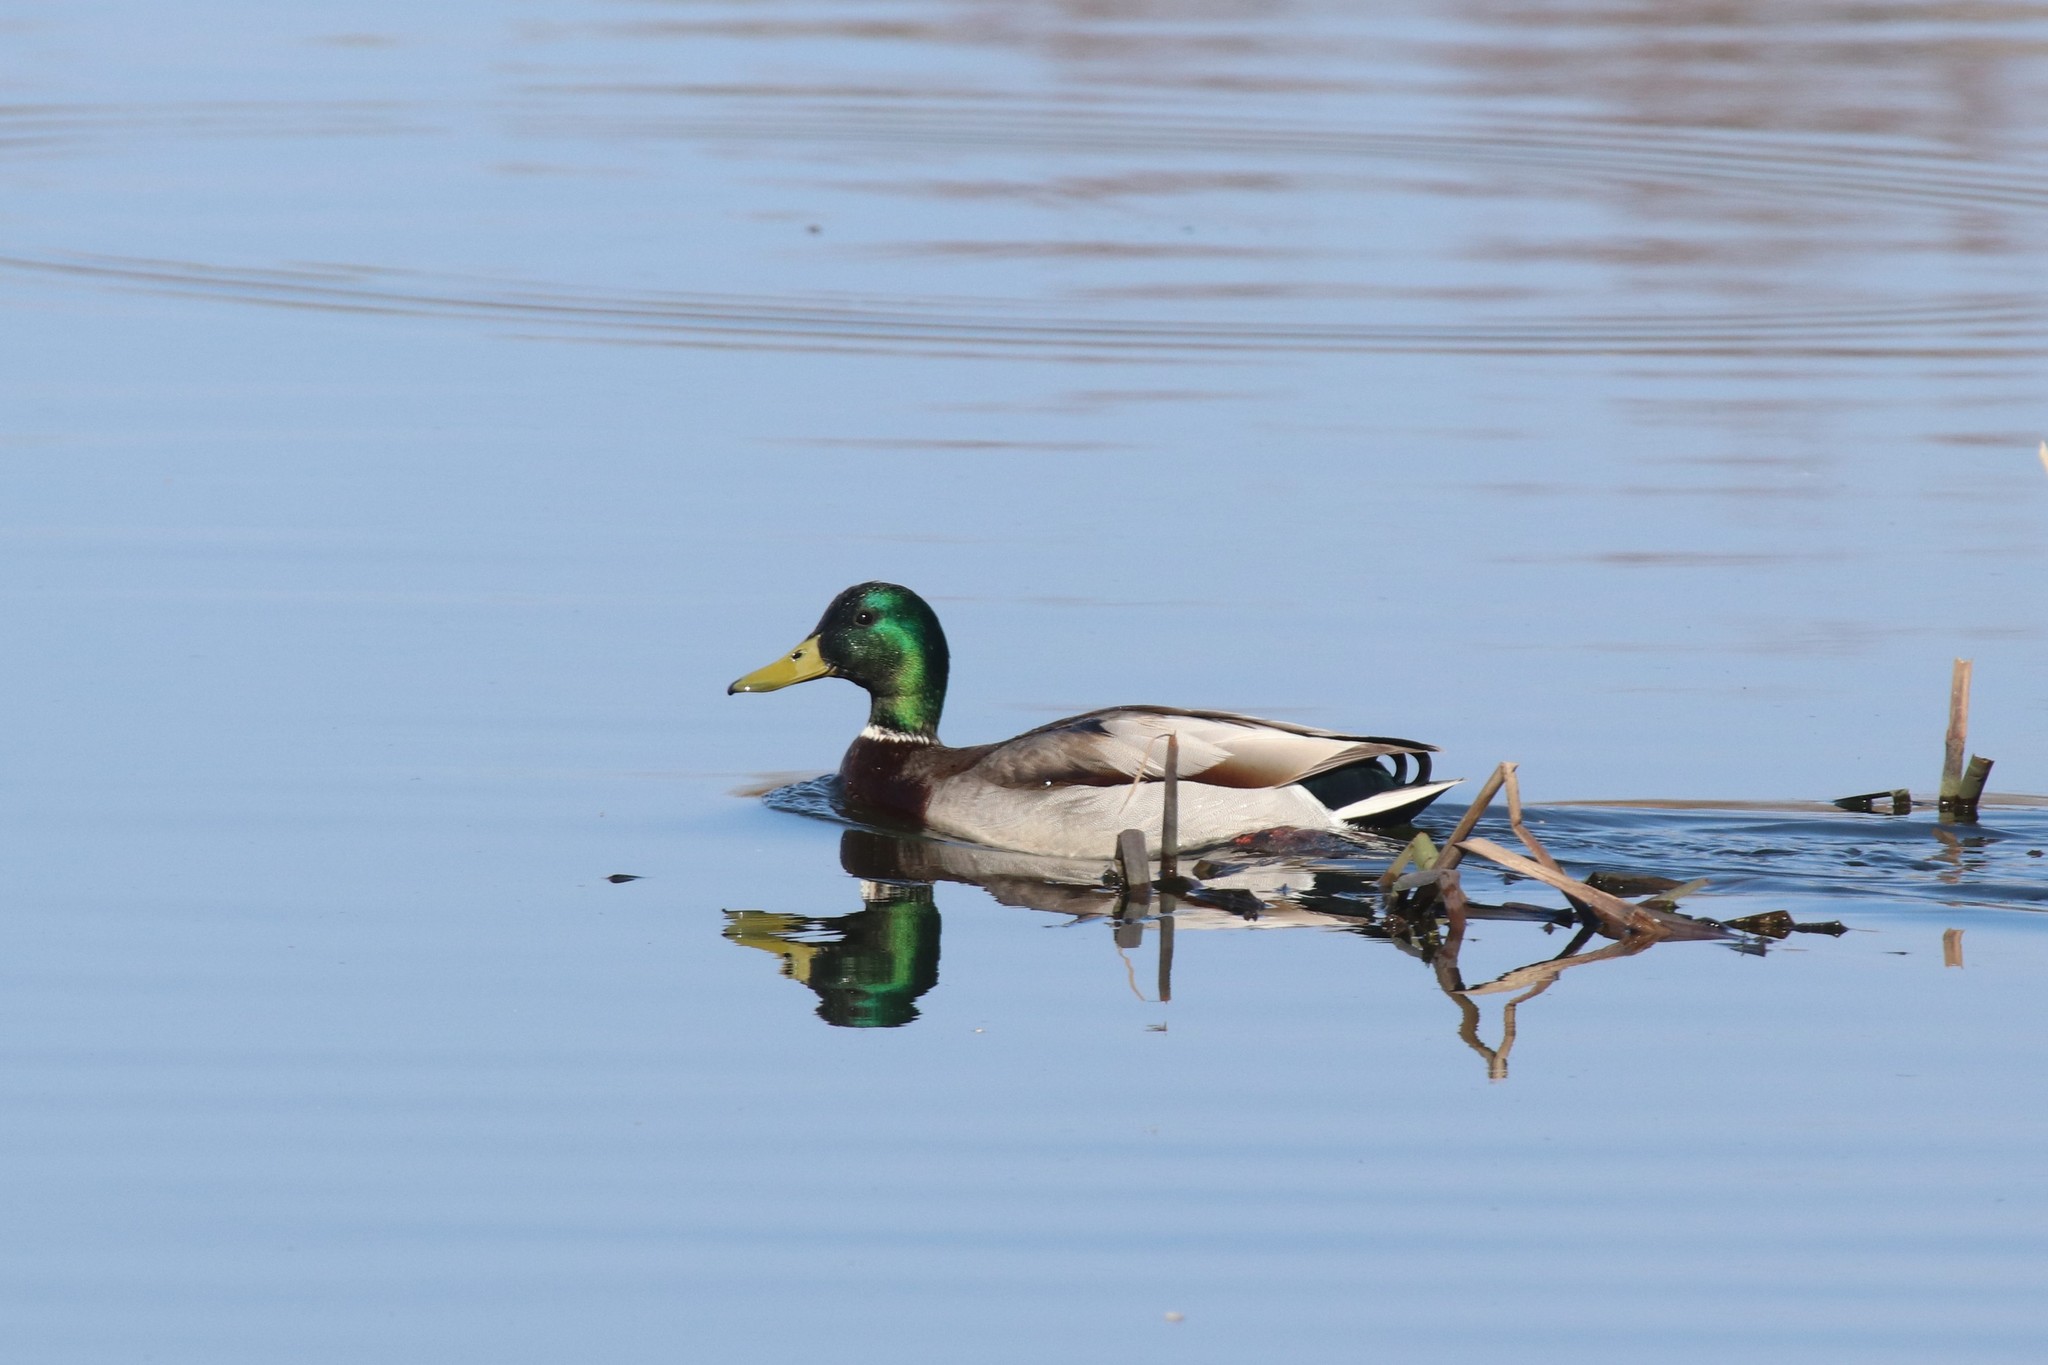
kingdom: Animalia
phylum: Chordata
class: Aves
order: Anseriformes
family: Anatidae
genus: Anas
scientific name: Anas platyrhynchos
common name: Mallard
